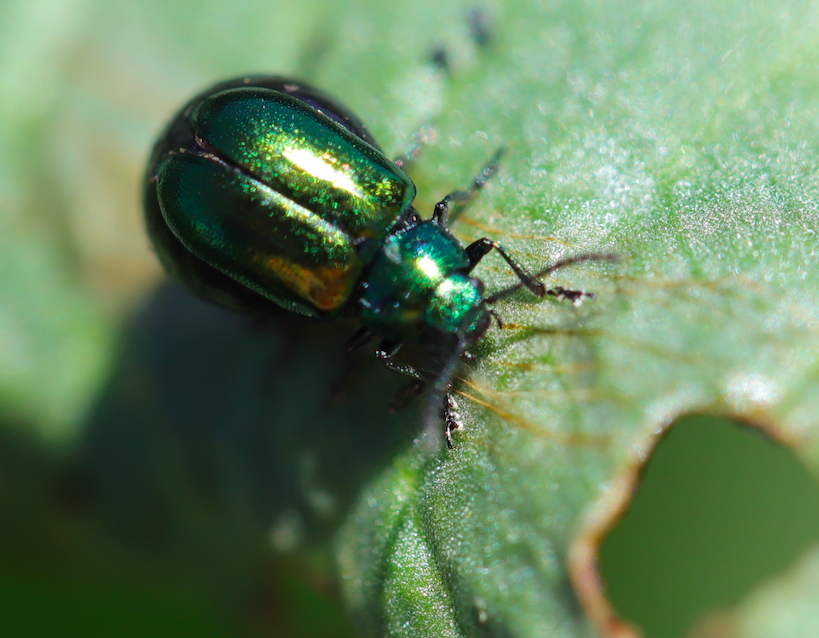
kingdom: Animalia
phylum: Arthropoda
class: Insecta
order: Coleoptera
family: Chrysomelidae
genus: Gastrophysa
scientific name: Gastrophysa cyanea
